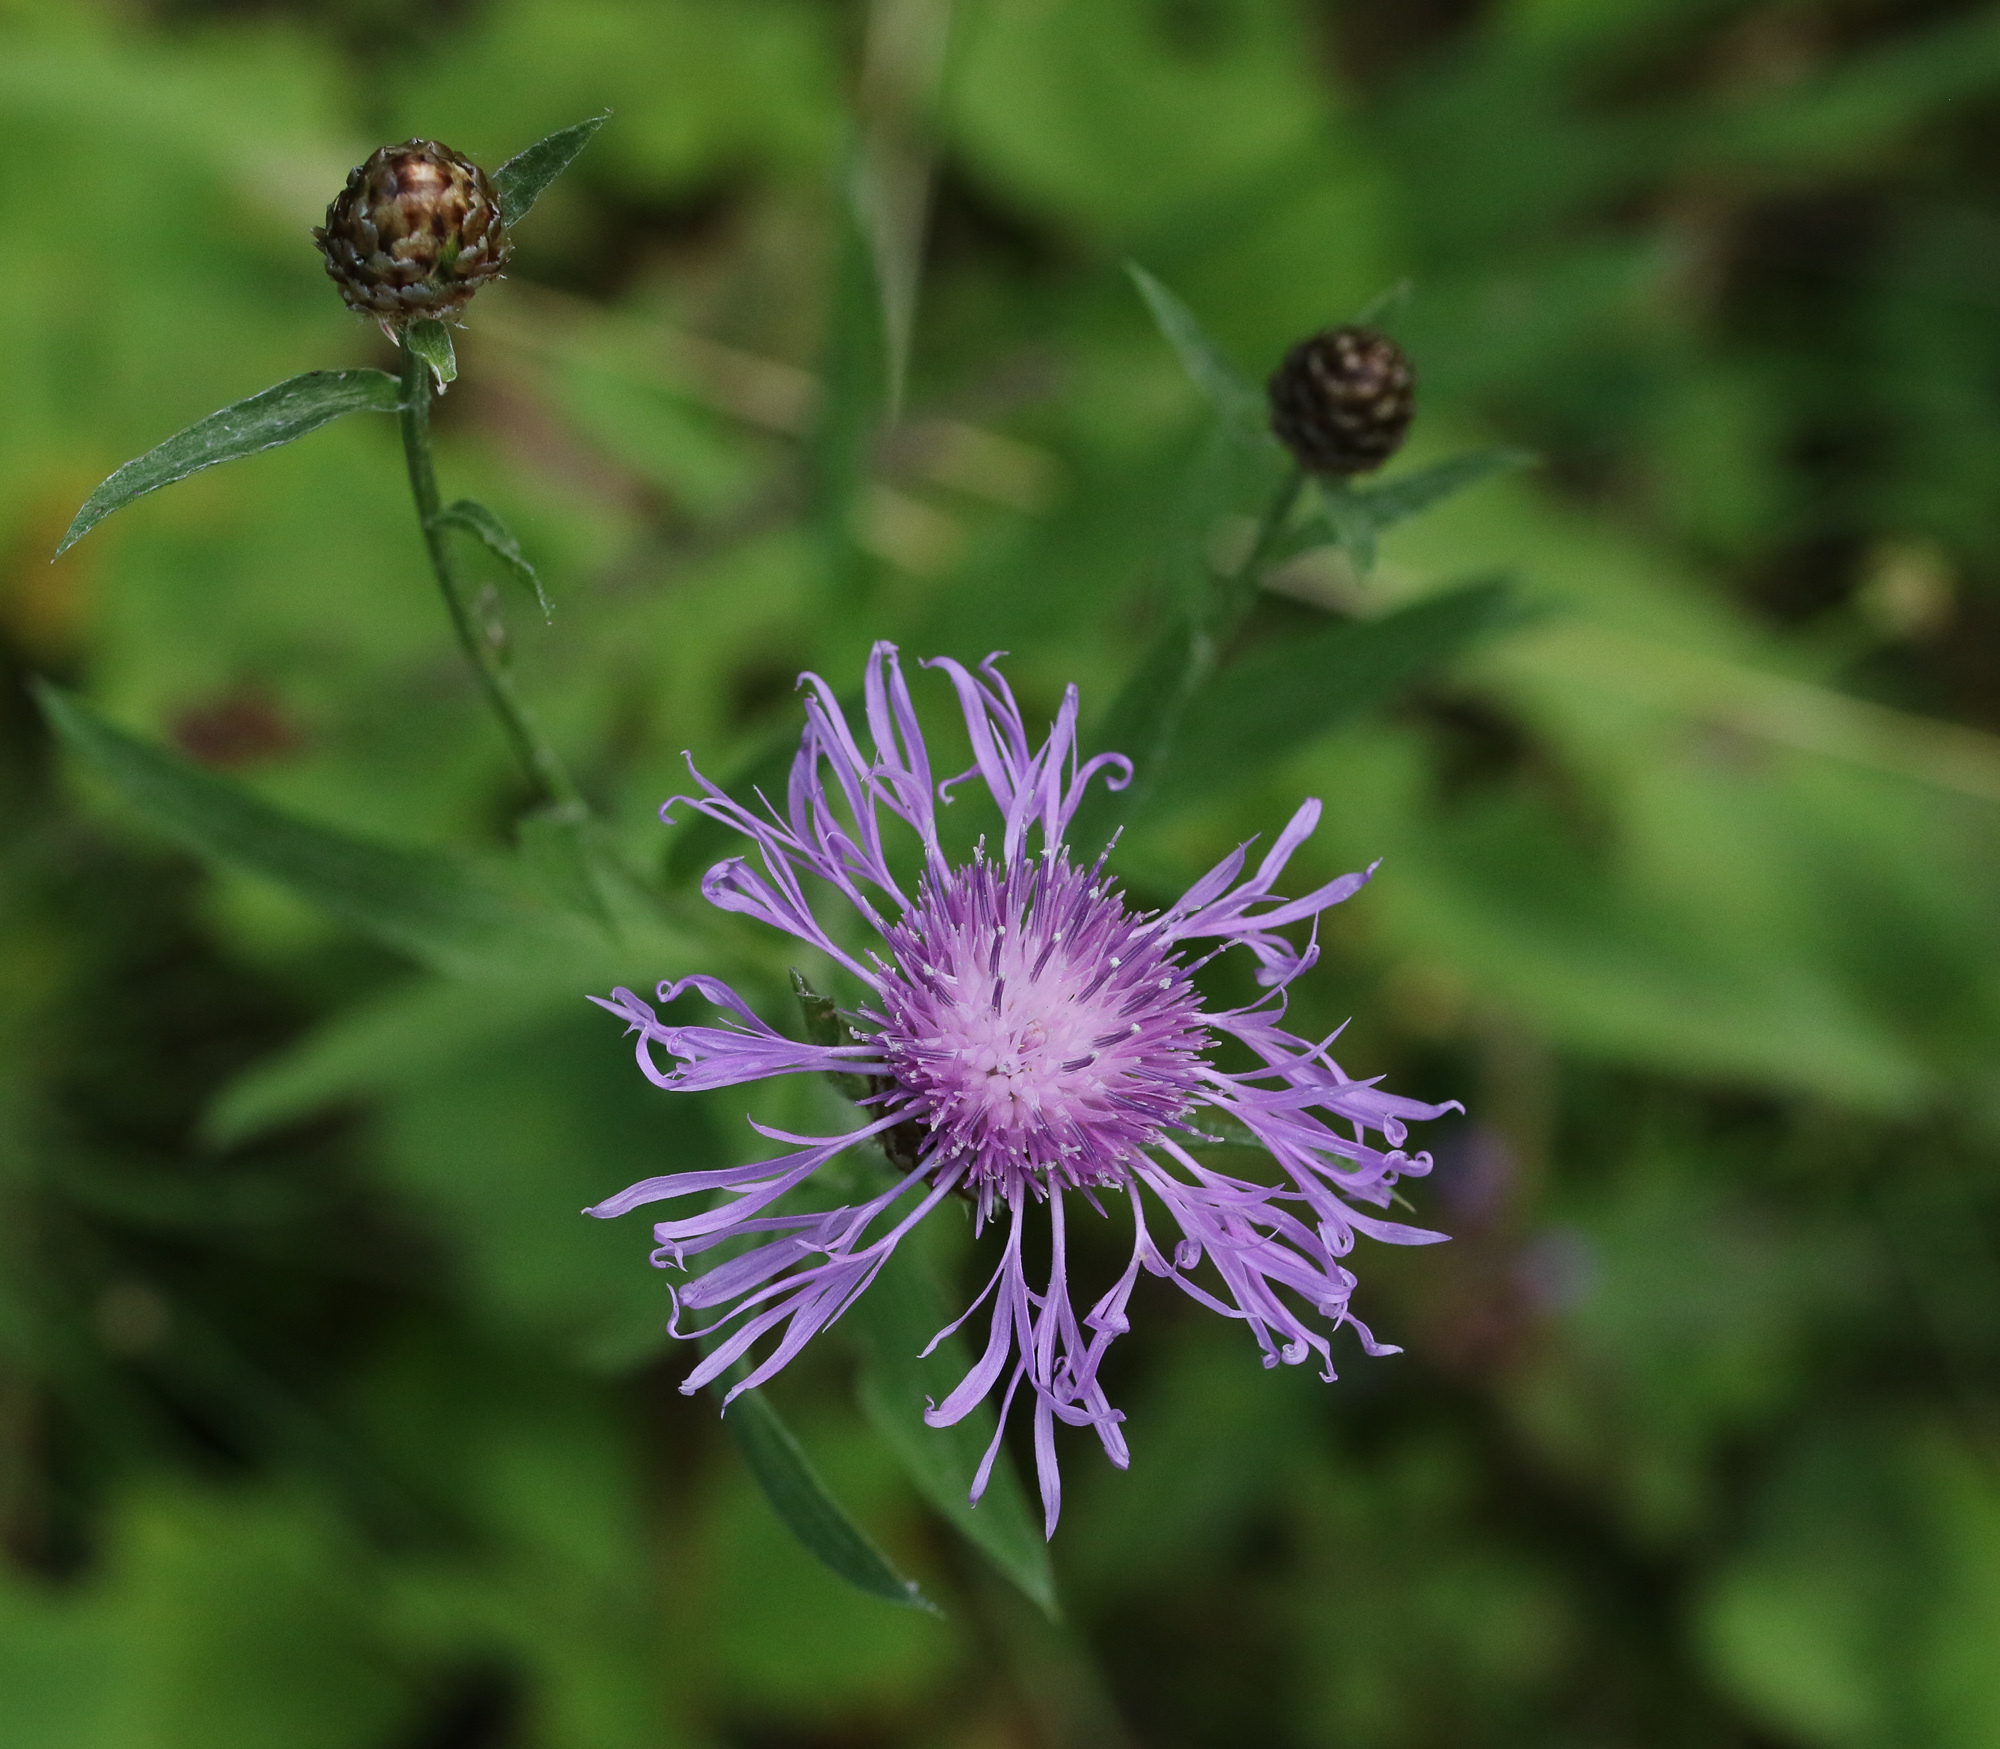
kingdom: Plantae
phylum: Tracheophyta
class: Magnoliopsida
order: Asterales
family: Asteraceae
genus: Centaurea
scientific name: Centaurea jacea
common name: Brown knapweed
